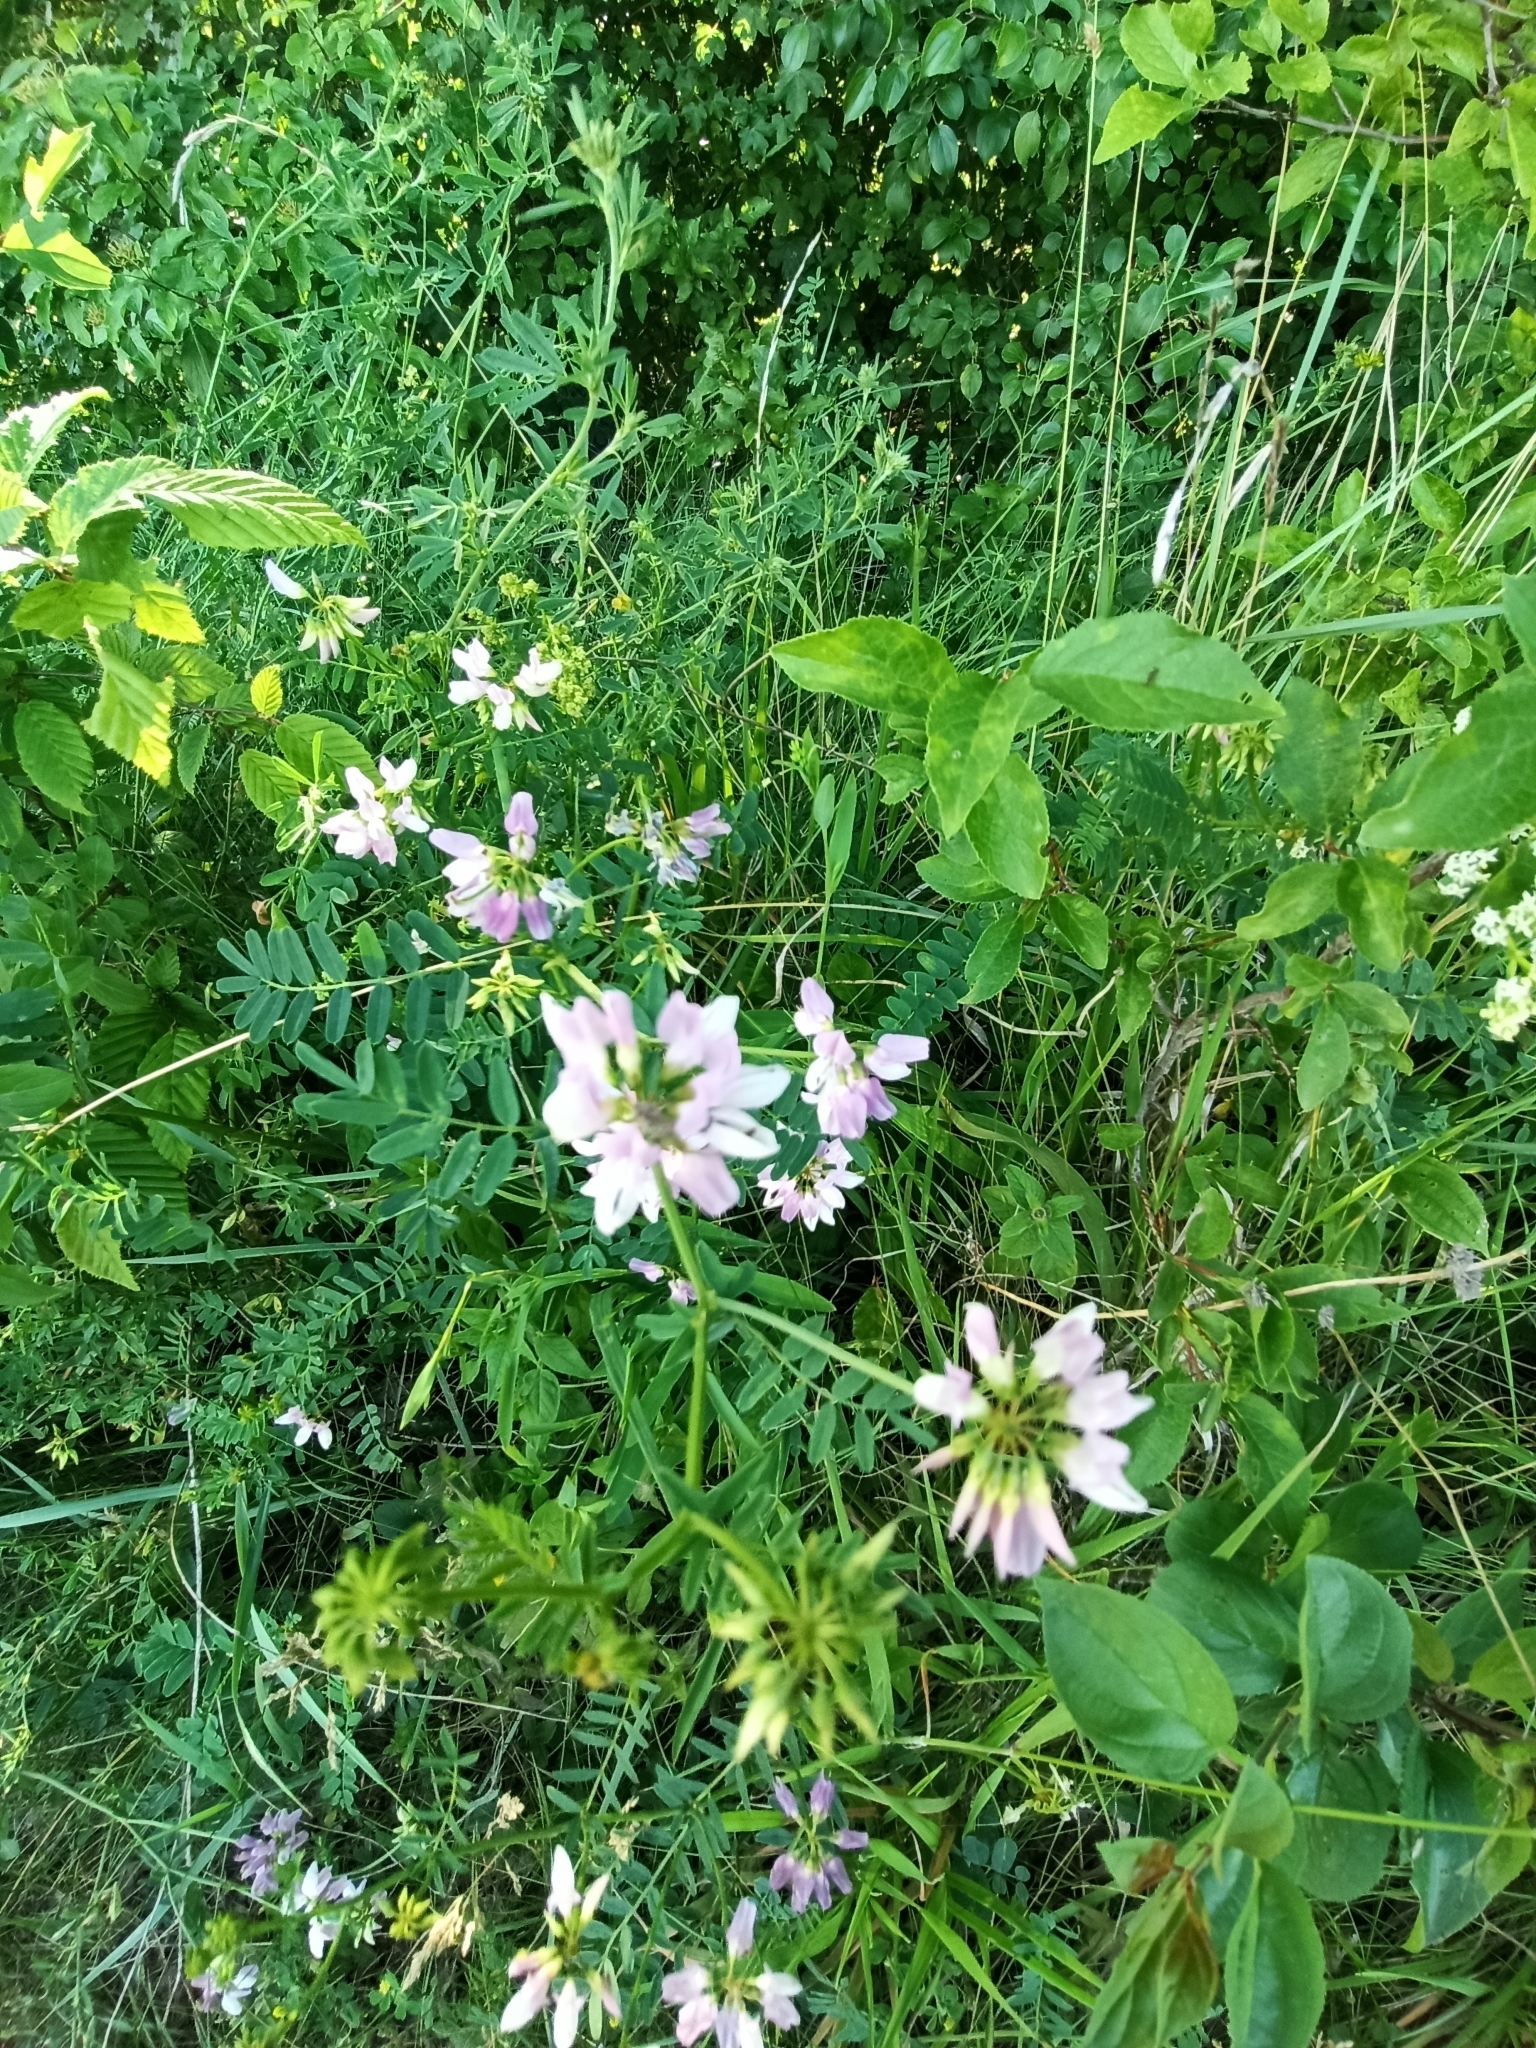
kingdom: Plantae
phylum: Tracheophyta
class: Magnoliopsida
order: Fabales
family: Fabaceae
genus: Coronilla
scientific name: Coronilla varia
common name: Crownvetch
